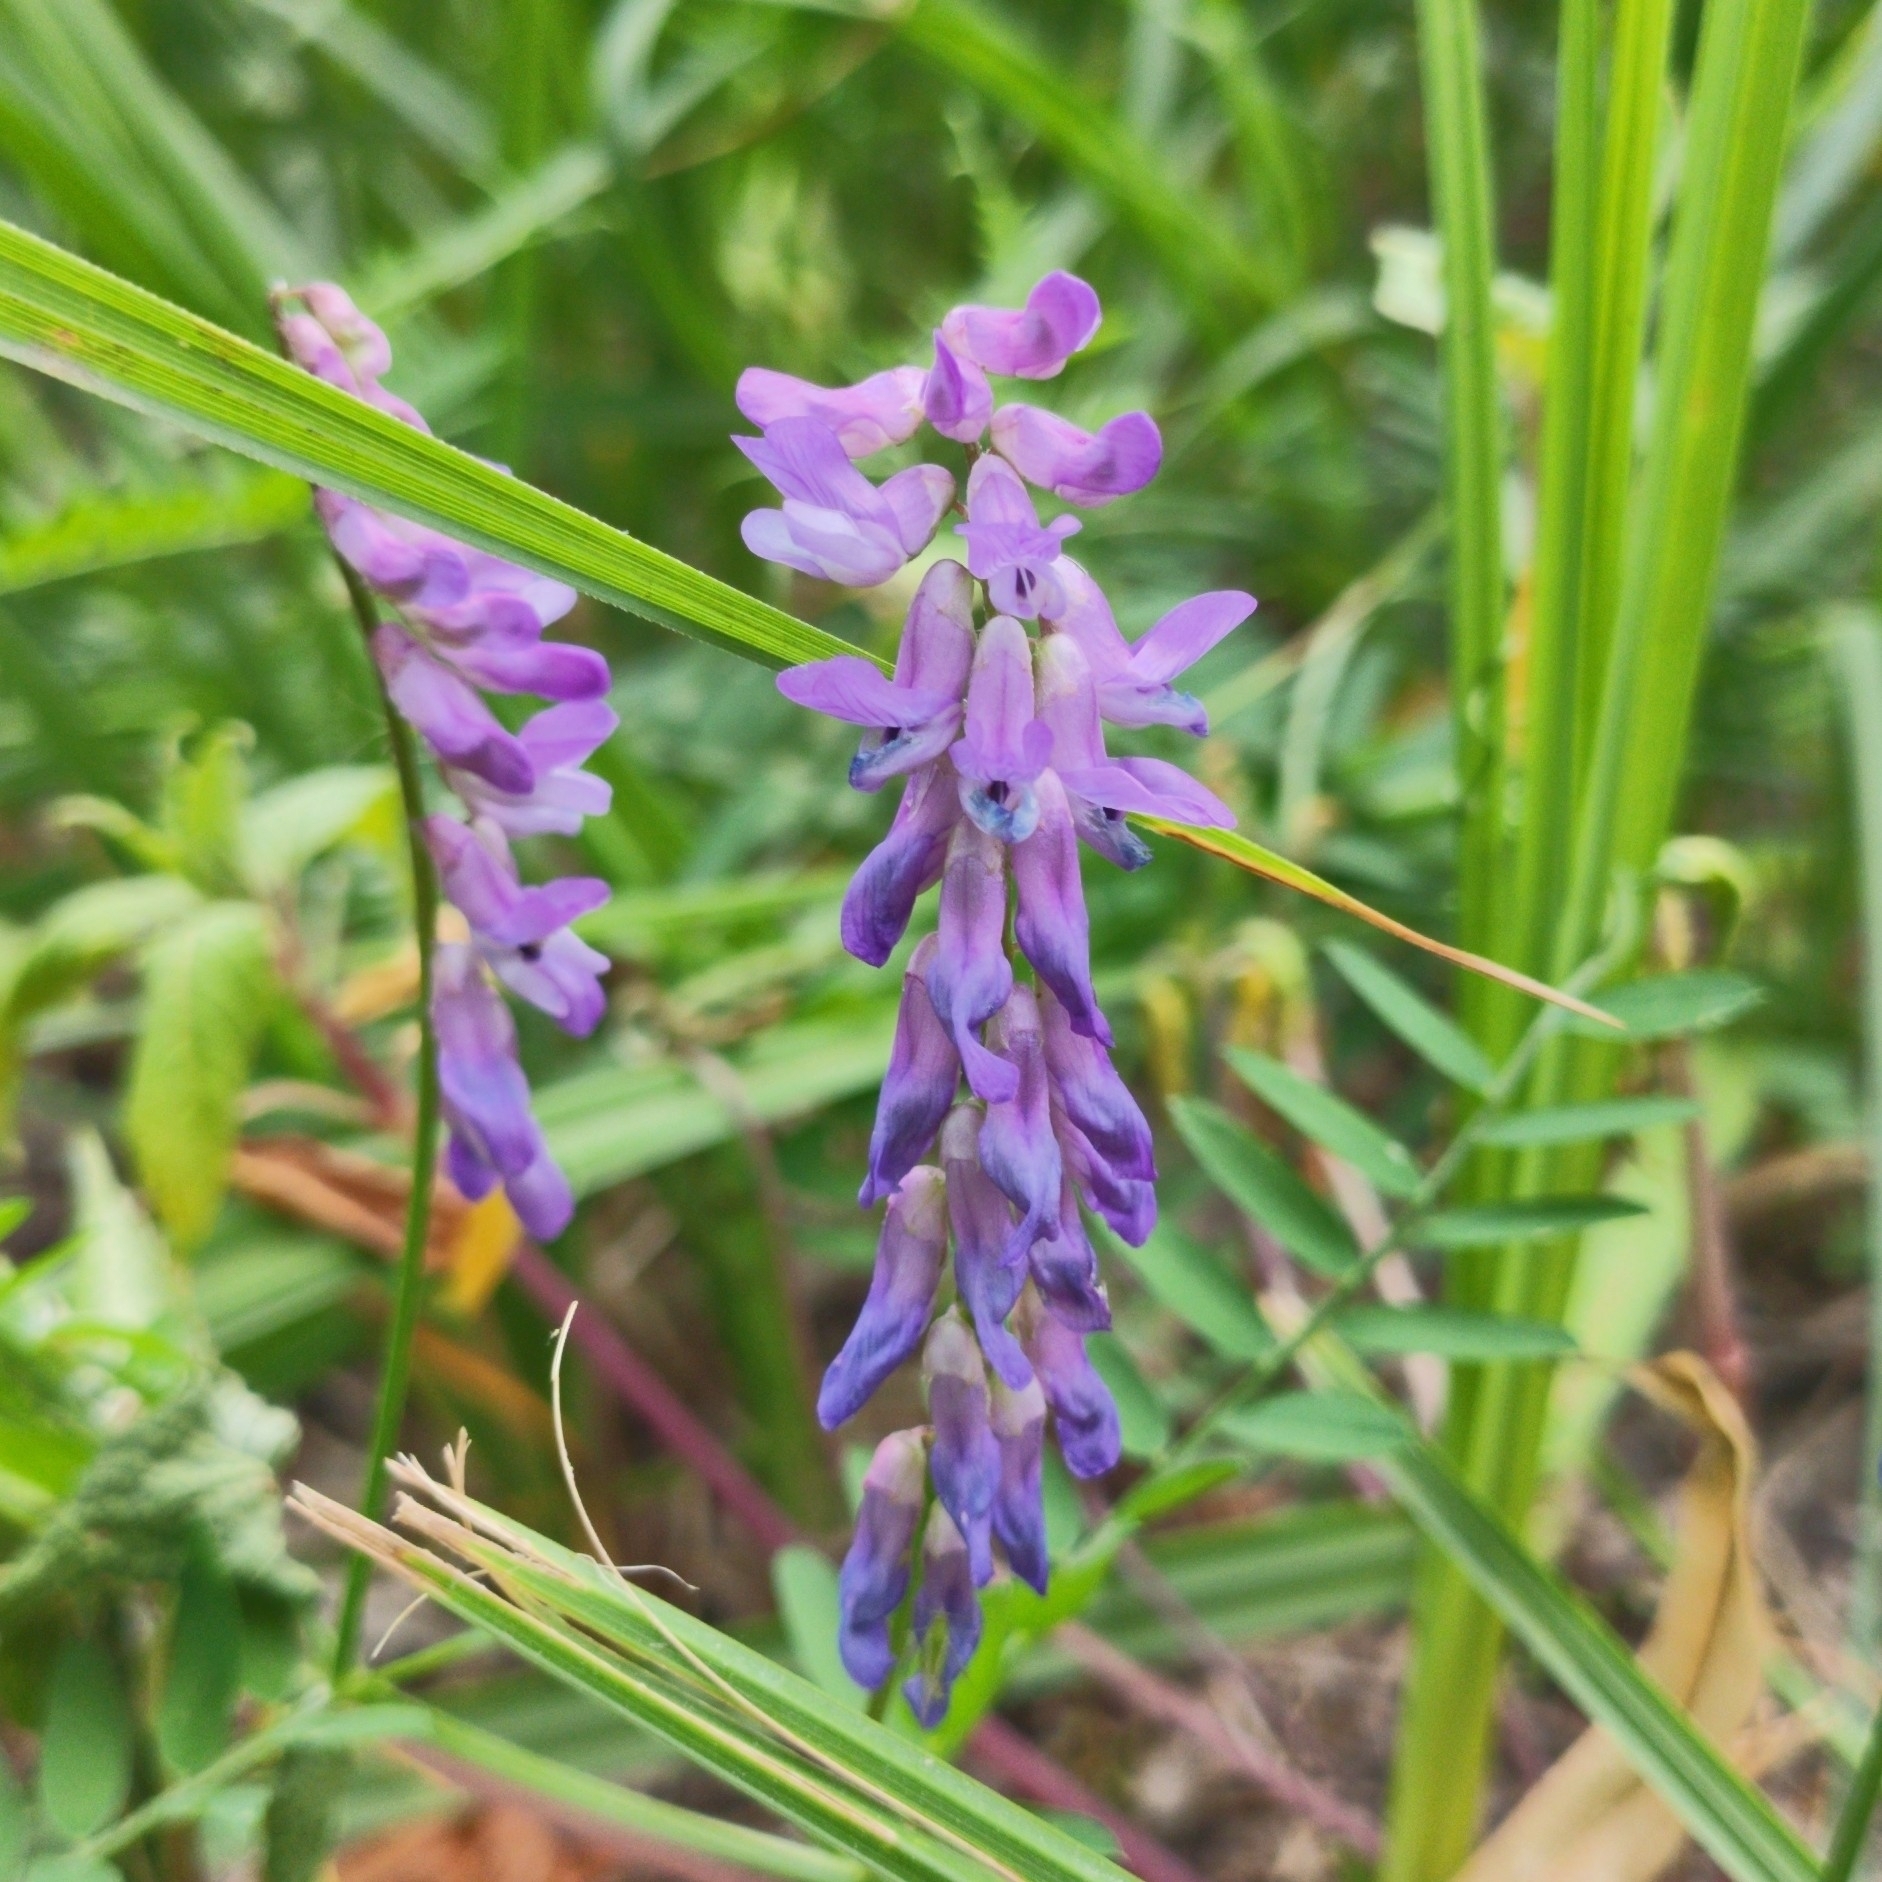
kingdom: Plantae
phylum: Tracheophyta
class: Magnoliopsida
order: Fabales
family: Fabaceae
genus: Vicia
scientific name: Vicia cracca
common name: Bird vetch
